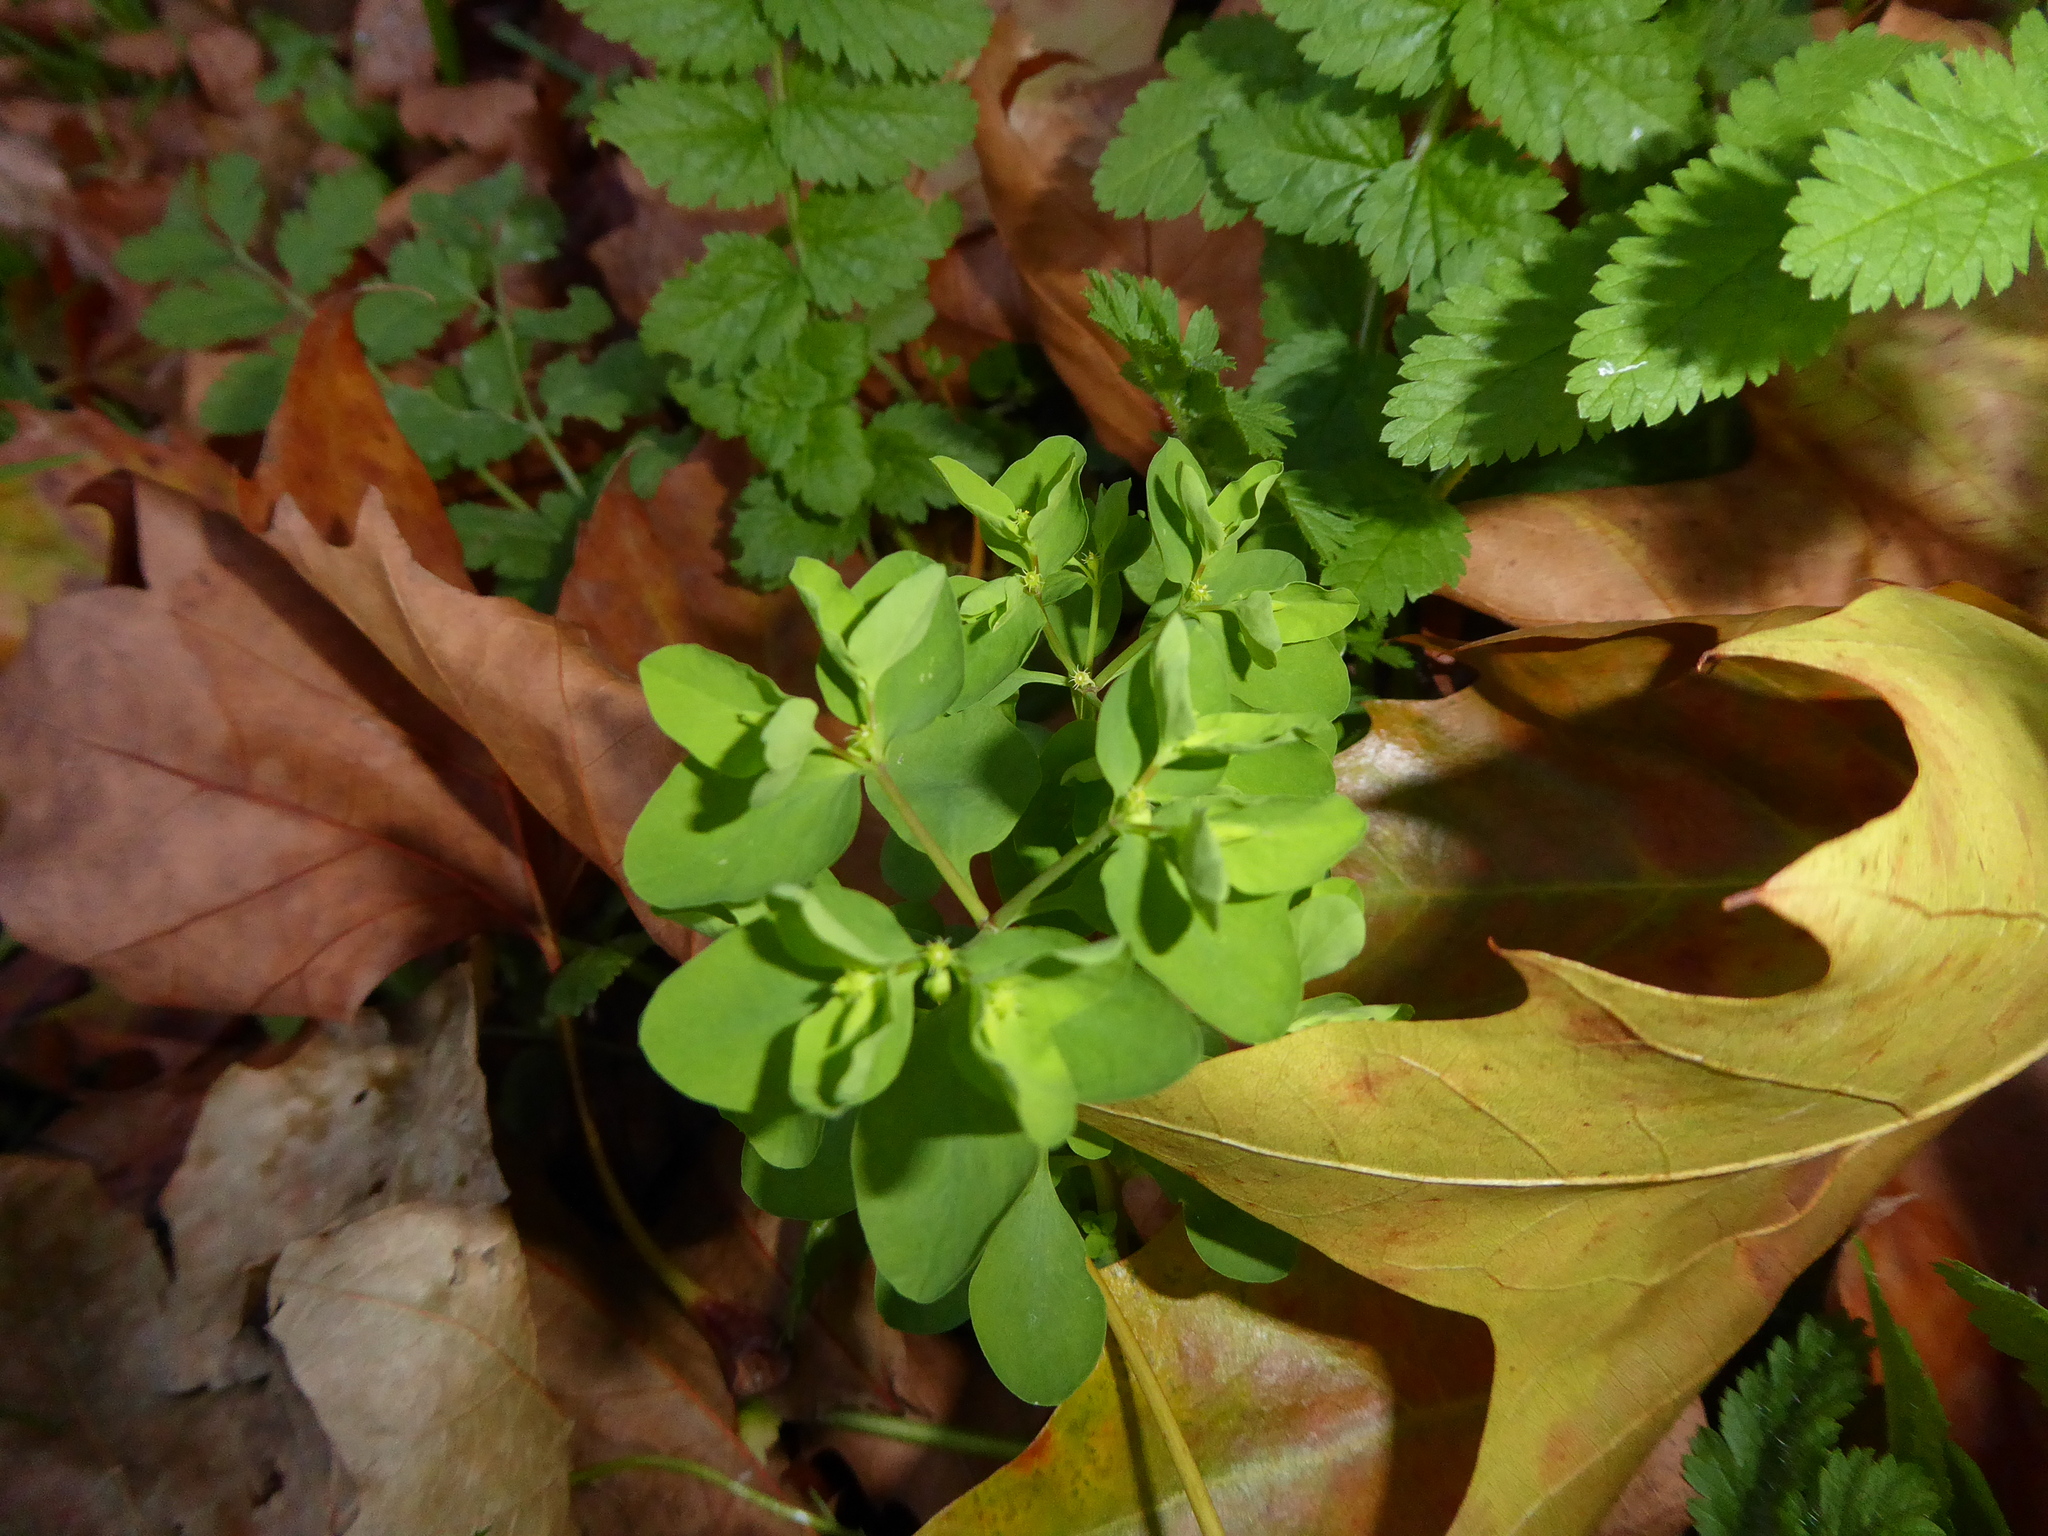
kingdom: Plantae
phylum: Tracheophyta
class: Magnoliopsida
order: Malpighiales
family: Euphorbiaceae
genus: Euphorbia
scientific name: Euphorbia peplus
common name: Petty spurge
